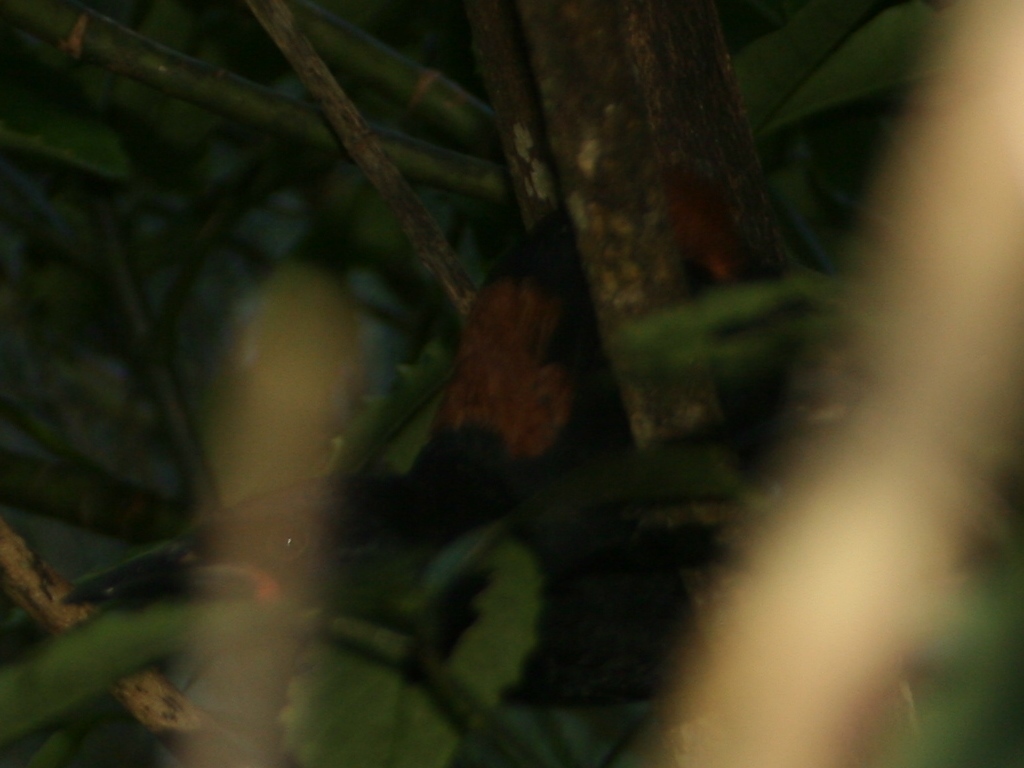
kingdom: Animalia
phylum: Chordata
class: Aves
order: Passeriformes
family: Callaeatidae
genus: Philesturnus
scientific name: Philesturnus carunculatus
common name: South island saddleback
